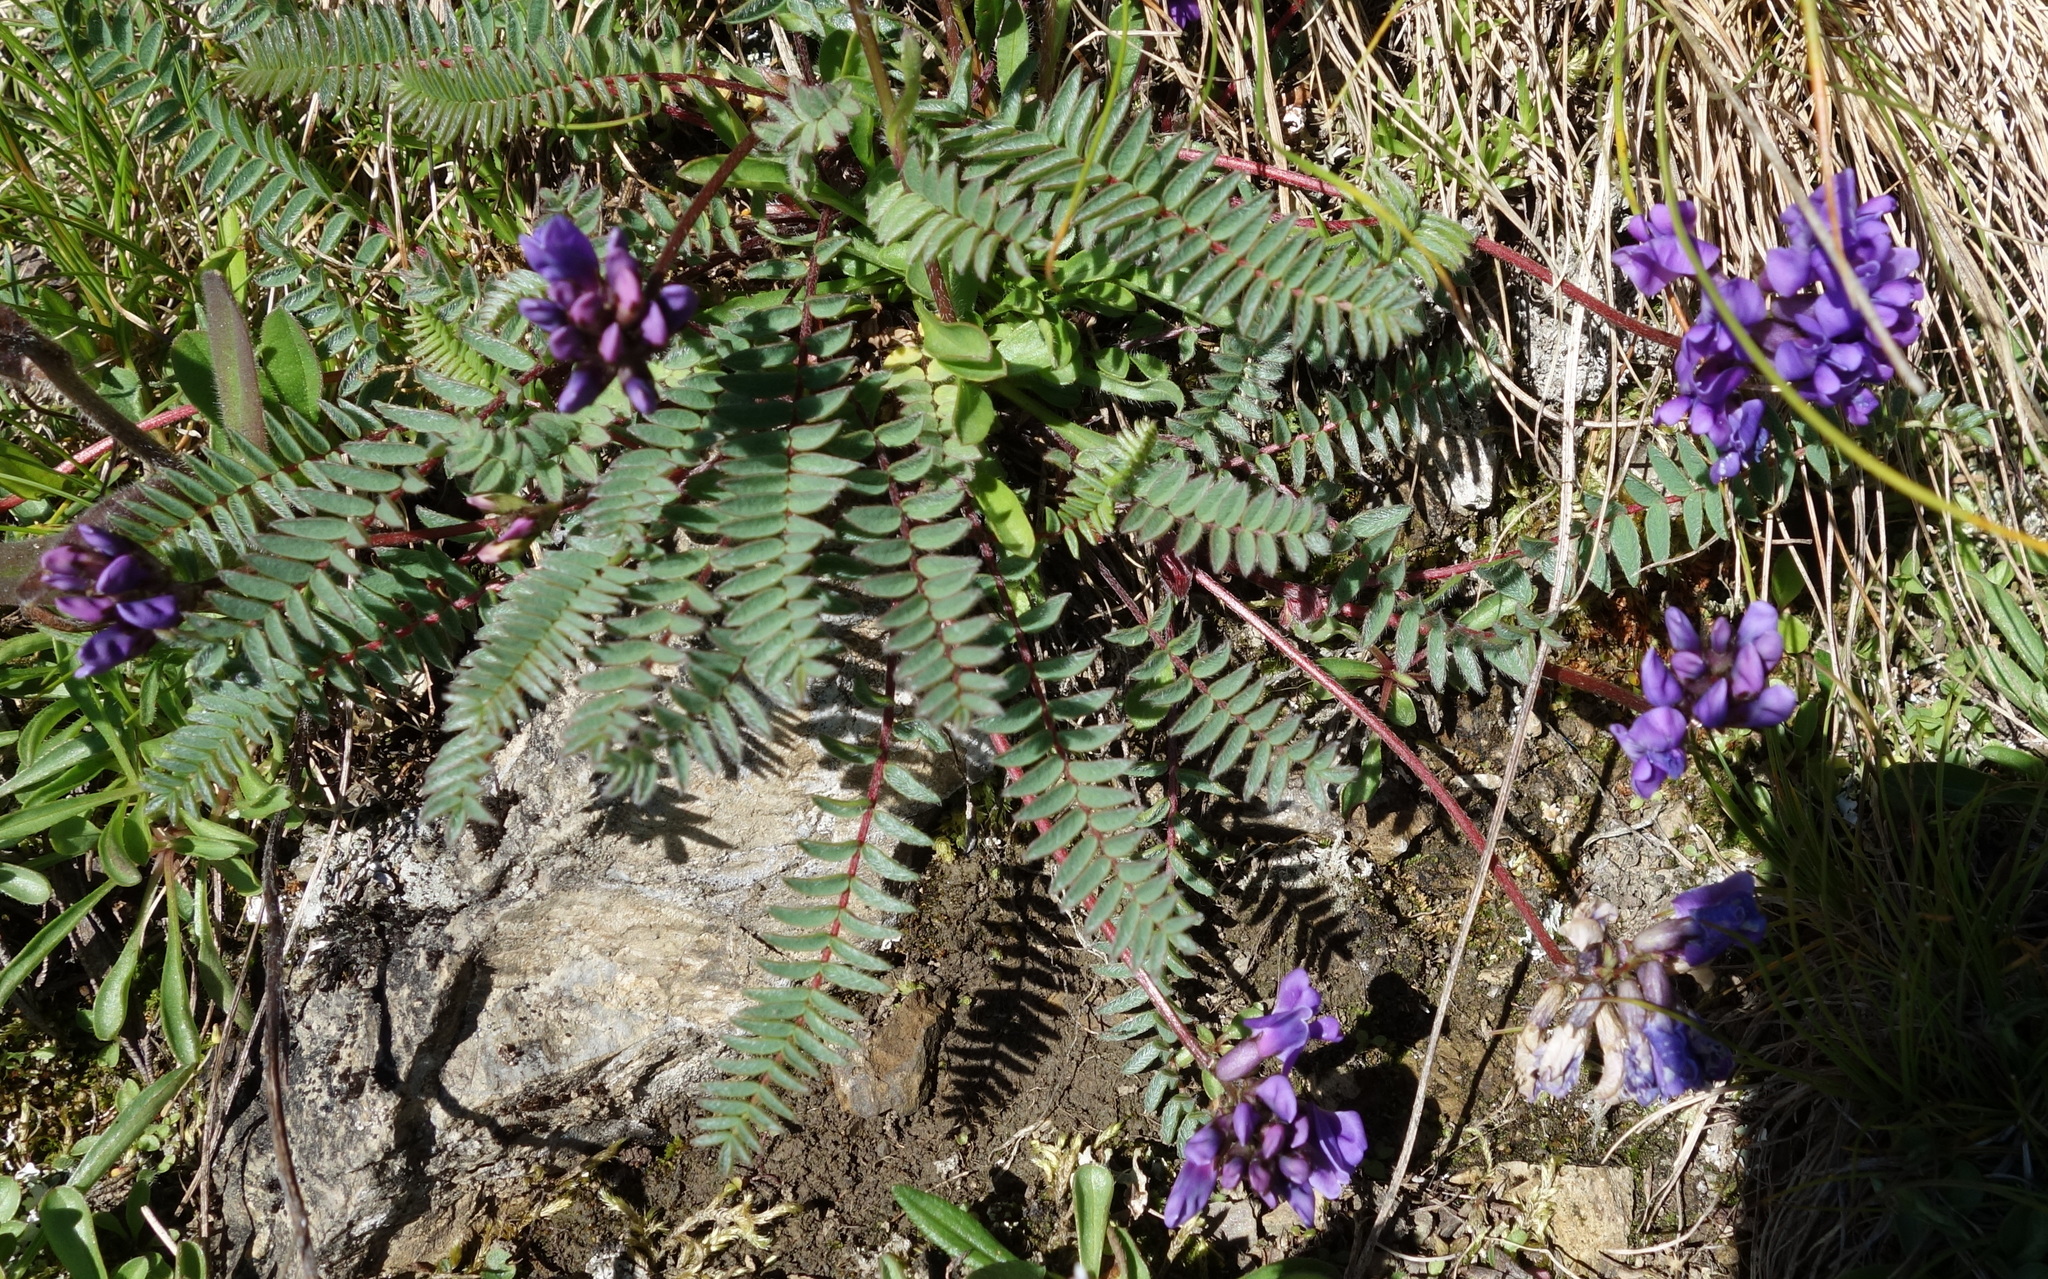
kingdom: Plantae
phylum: Tracheophyta
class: Magnoliopsida
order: Fabales
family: Fabaceae
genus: Oxytropis
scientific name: Oxytropis montana
